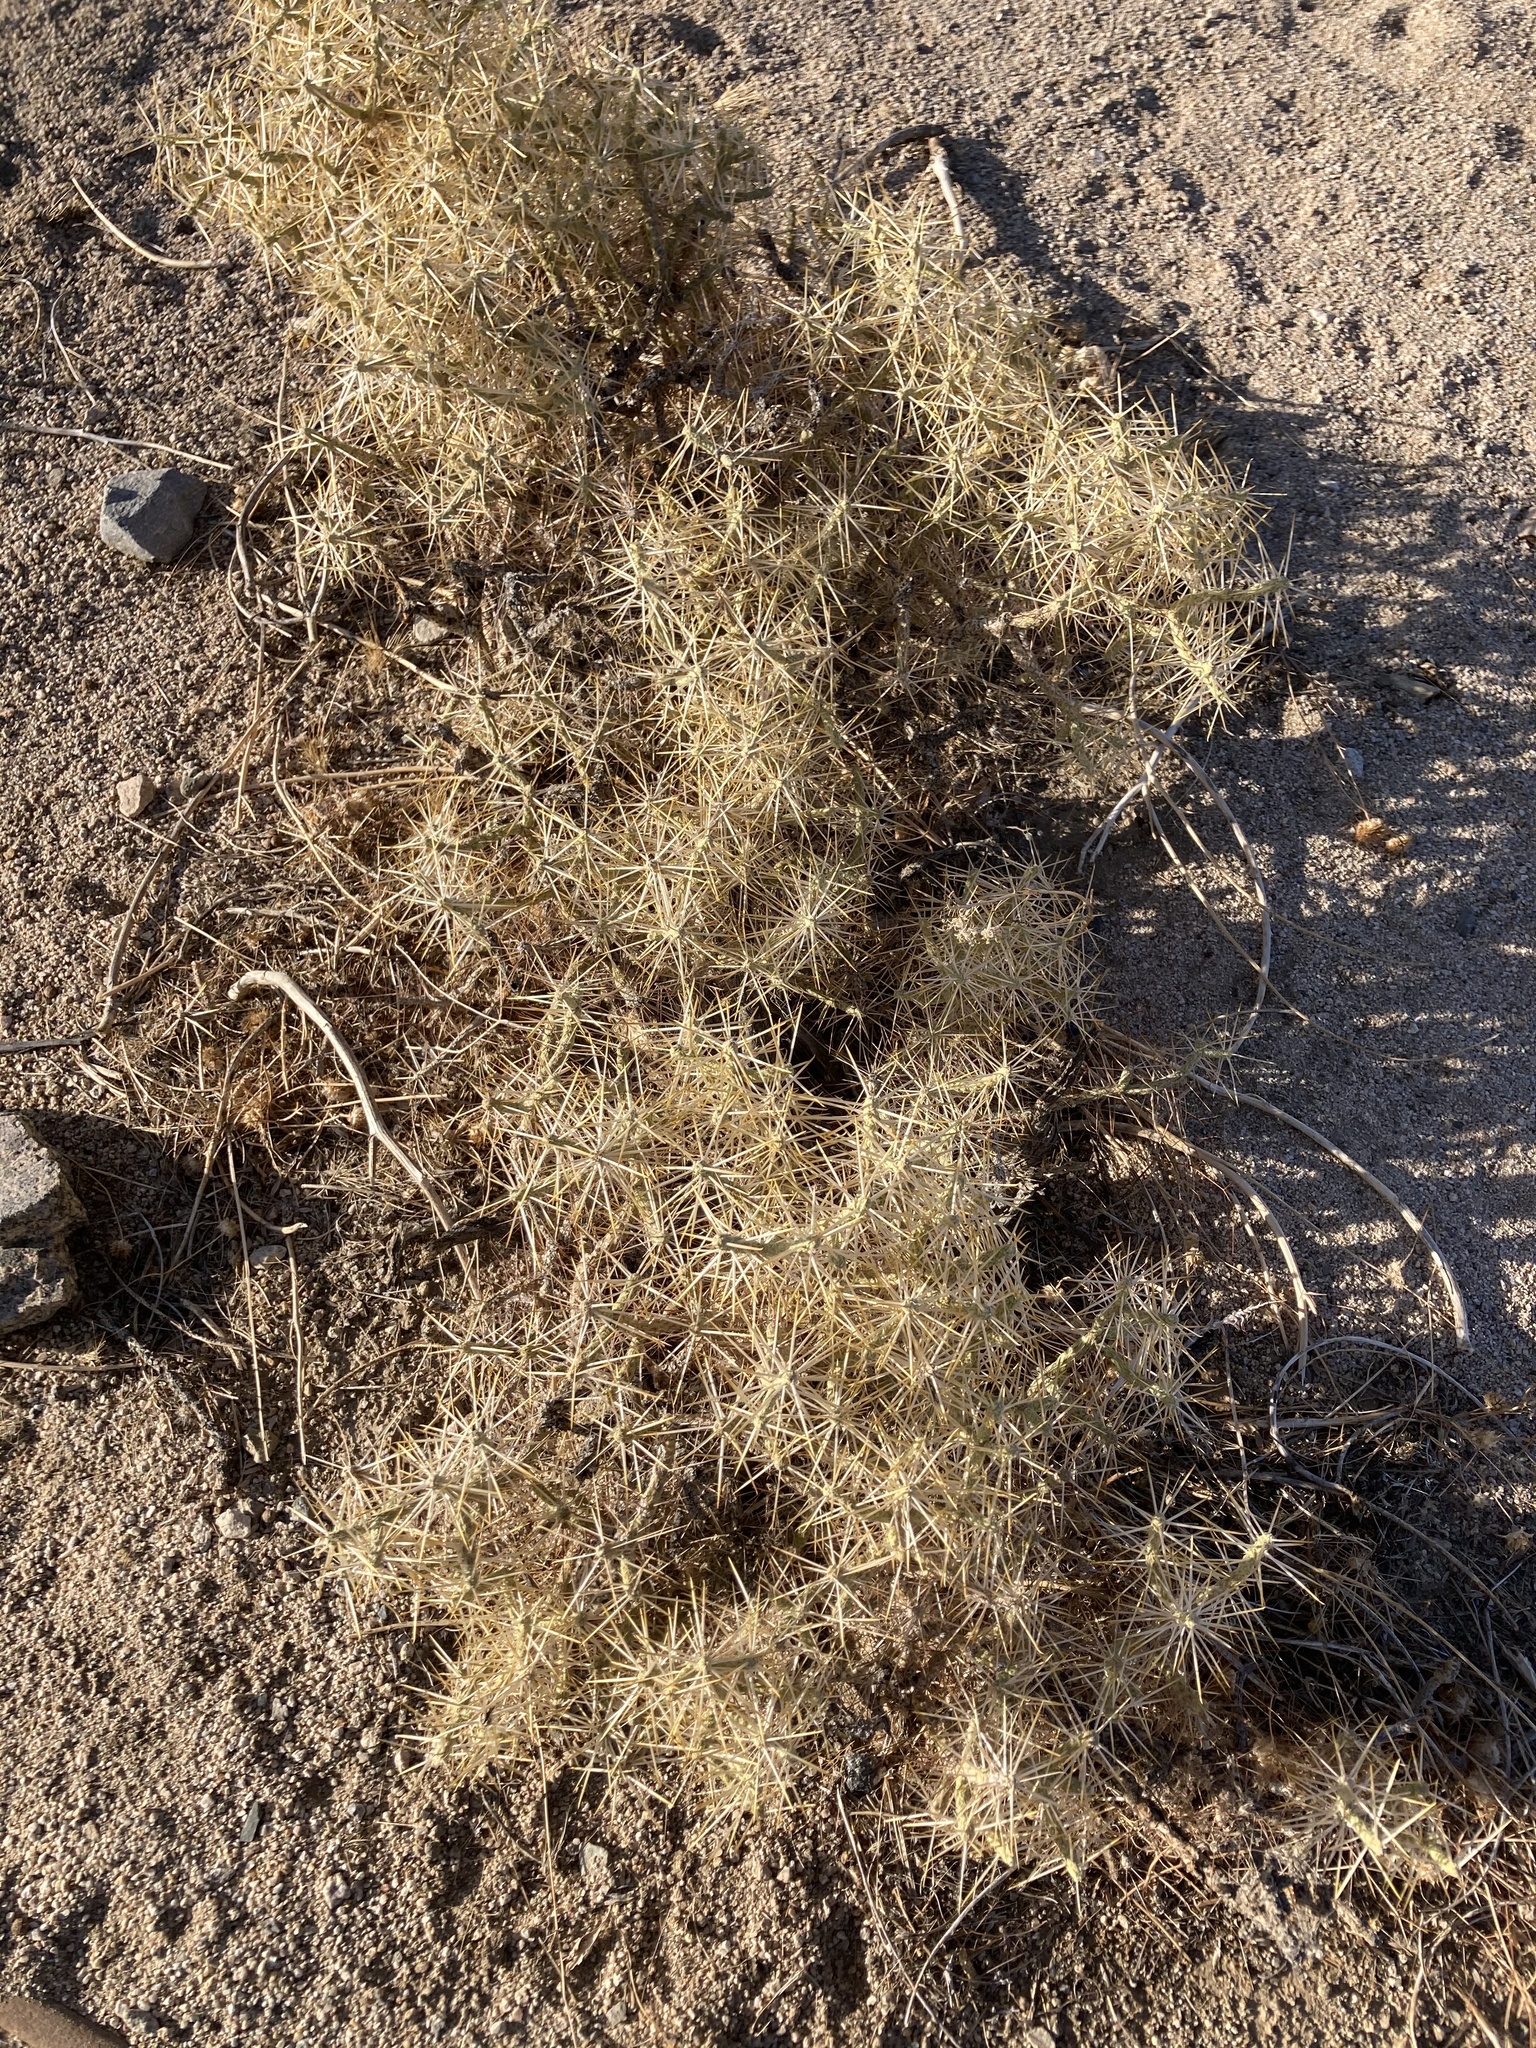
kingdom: Plantae
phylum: Tracheophyta
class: Magnoliopsida
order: Caryophyllales
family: Cactaceae
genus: Cylindropuntia
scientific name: Cylindropuntia ramosissima
